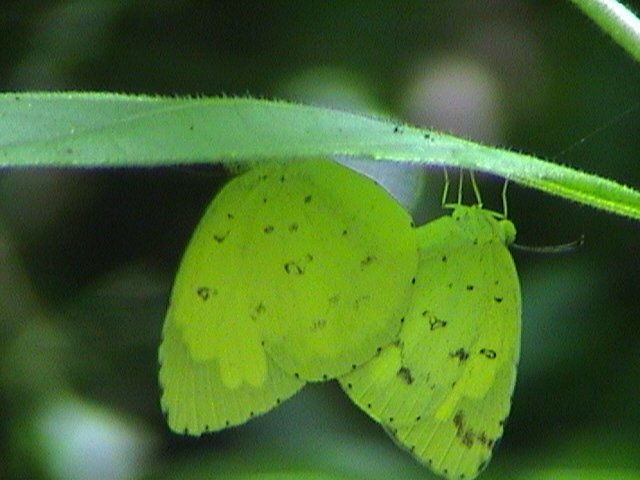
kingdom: Animalia
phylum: Arthropoda
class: Insecta
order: Lepidoptera
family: Pieridae
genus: Eurema
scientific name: Eurema hecabe
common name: Pale grass yellow
